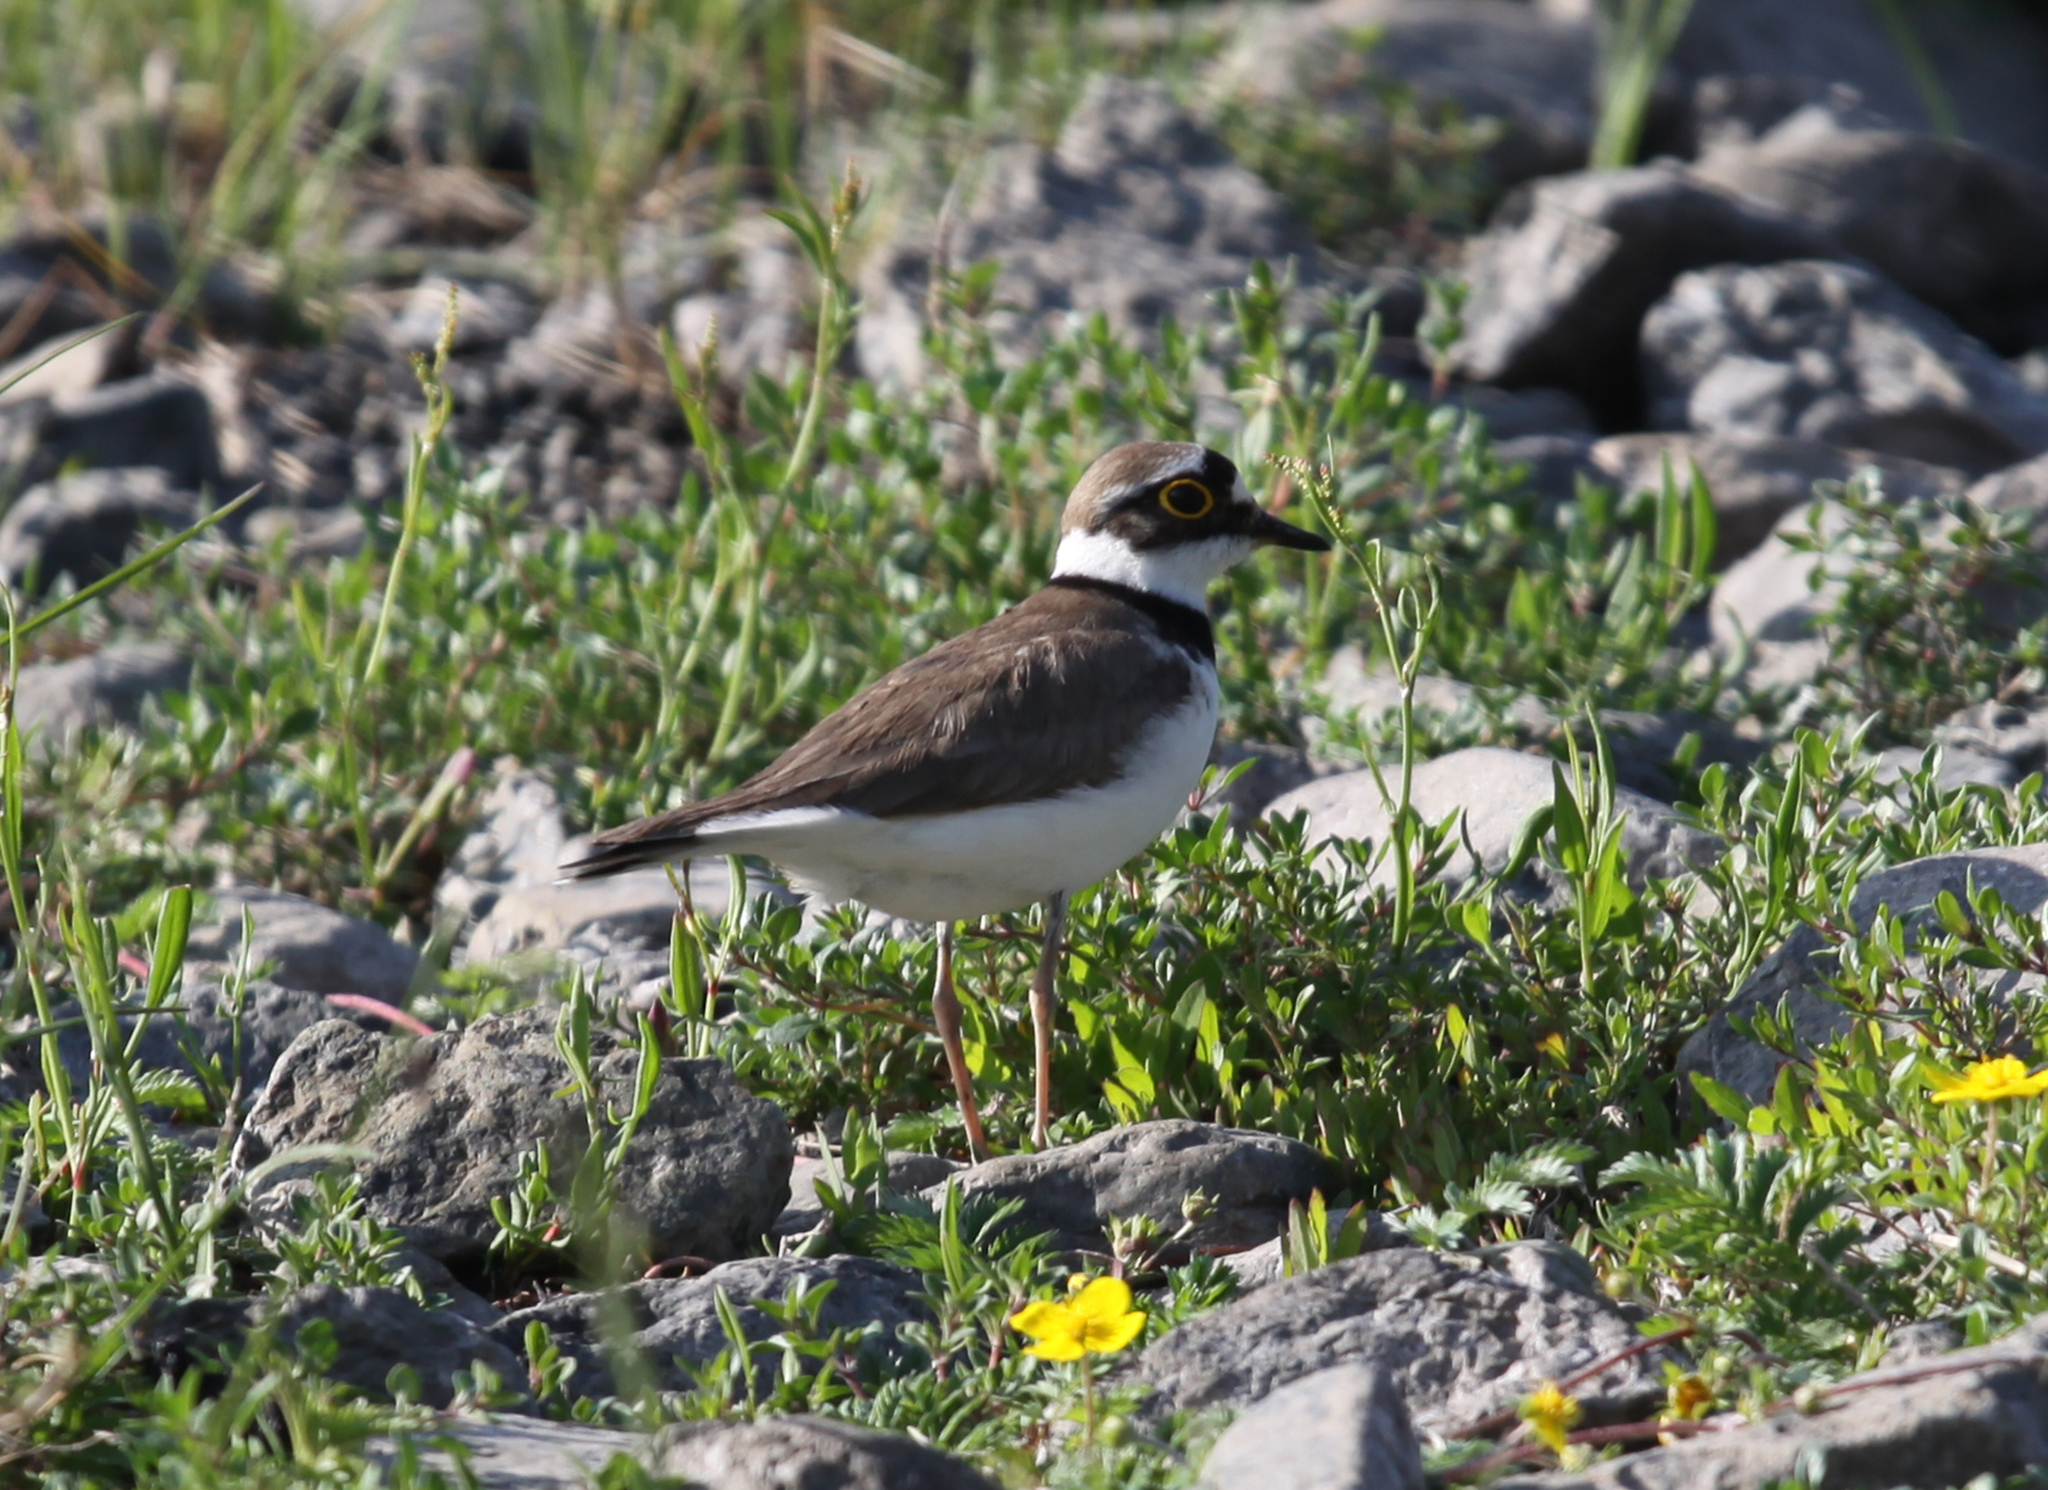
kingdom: Animalia
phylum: Chordata
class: Aves
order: Charadriiformes
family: Charadriidae
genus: Charadrius
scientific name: Charadrius dubius
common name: Little ringed plover
